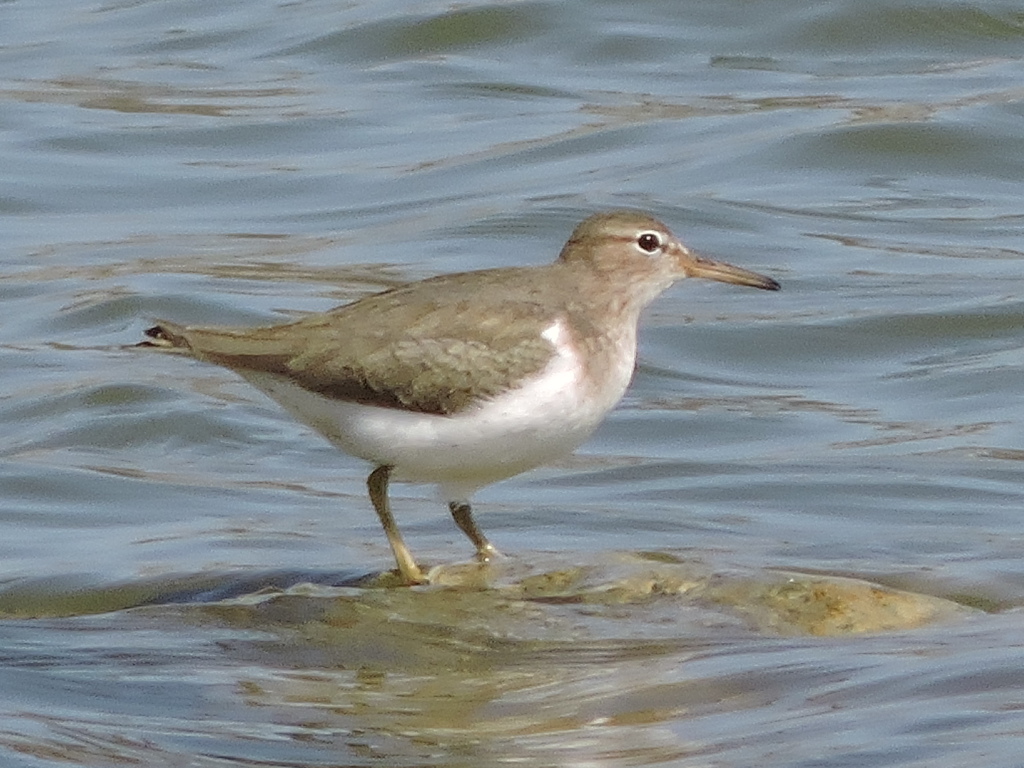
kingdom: Animalia
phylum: Chordata
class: Aves
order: Charadriiformes
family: Scolopacidae
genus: Actitis
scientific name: Actitis macularius
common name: Spotted sandpiper
